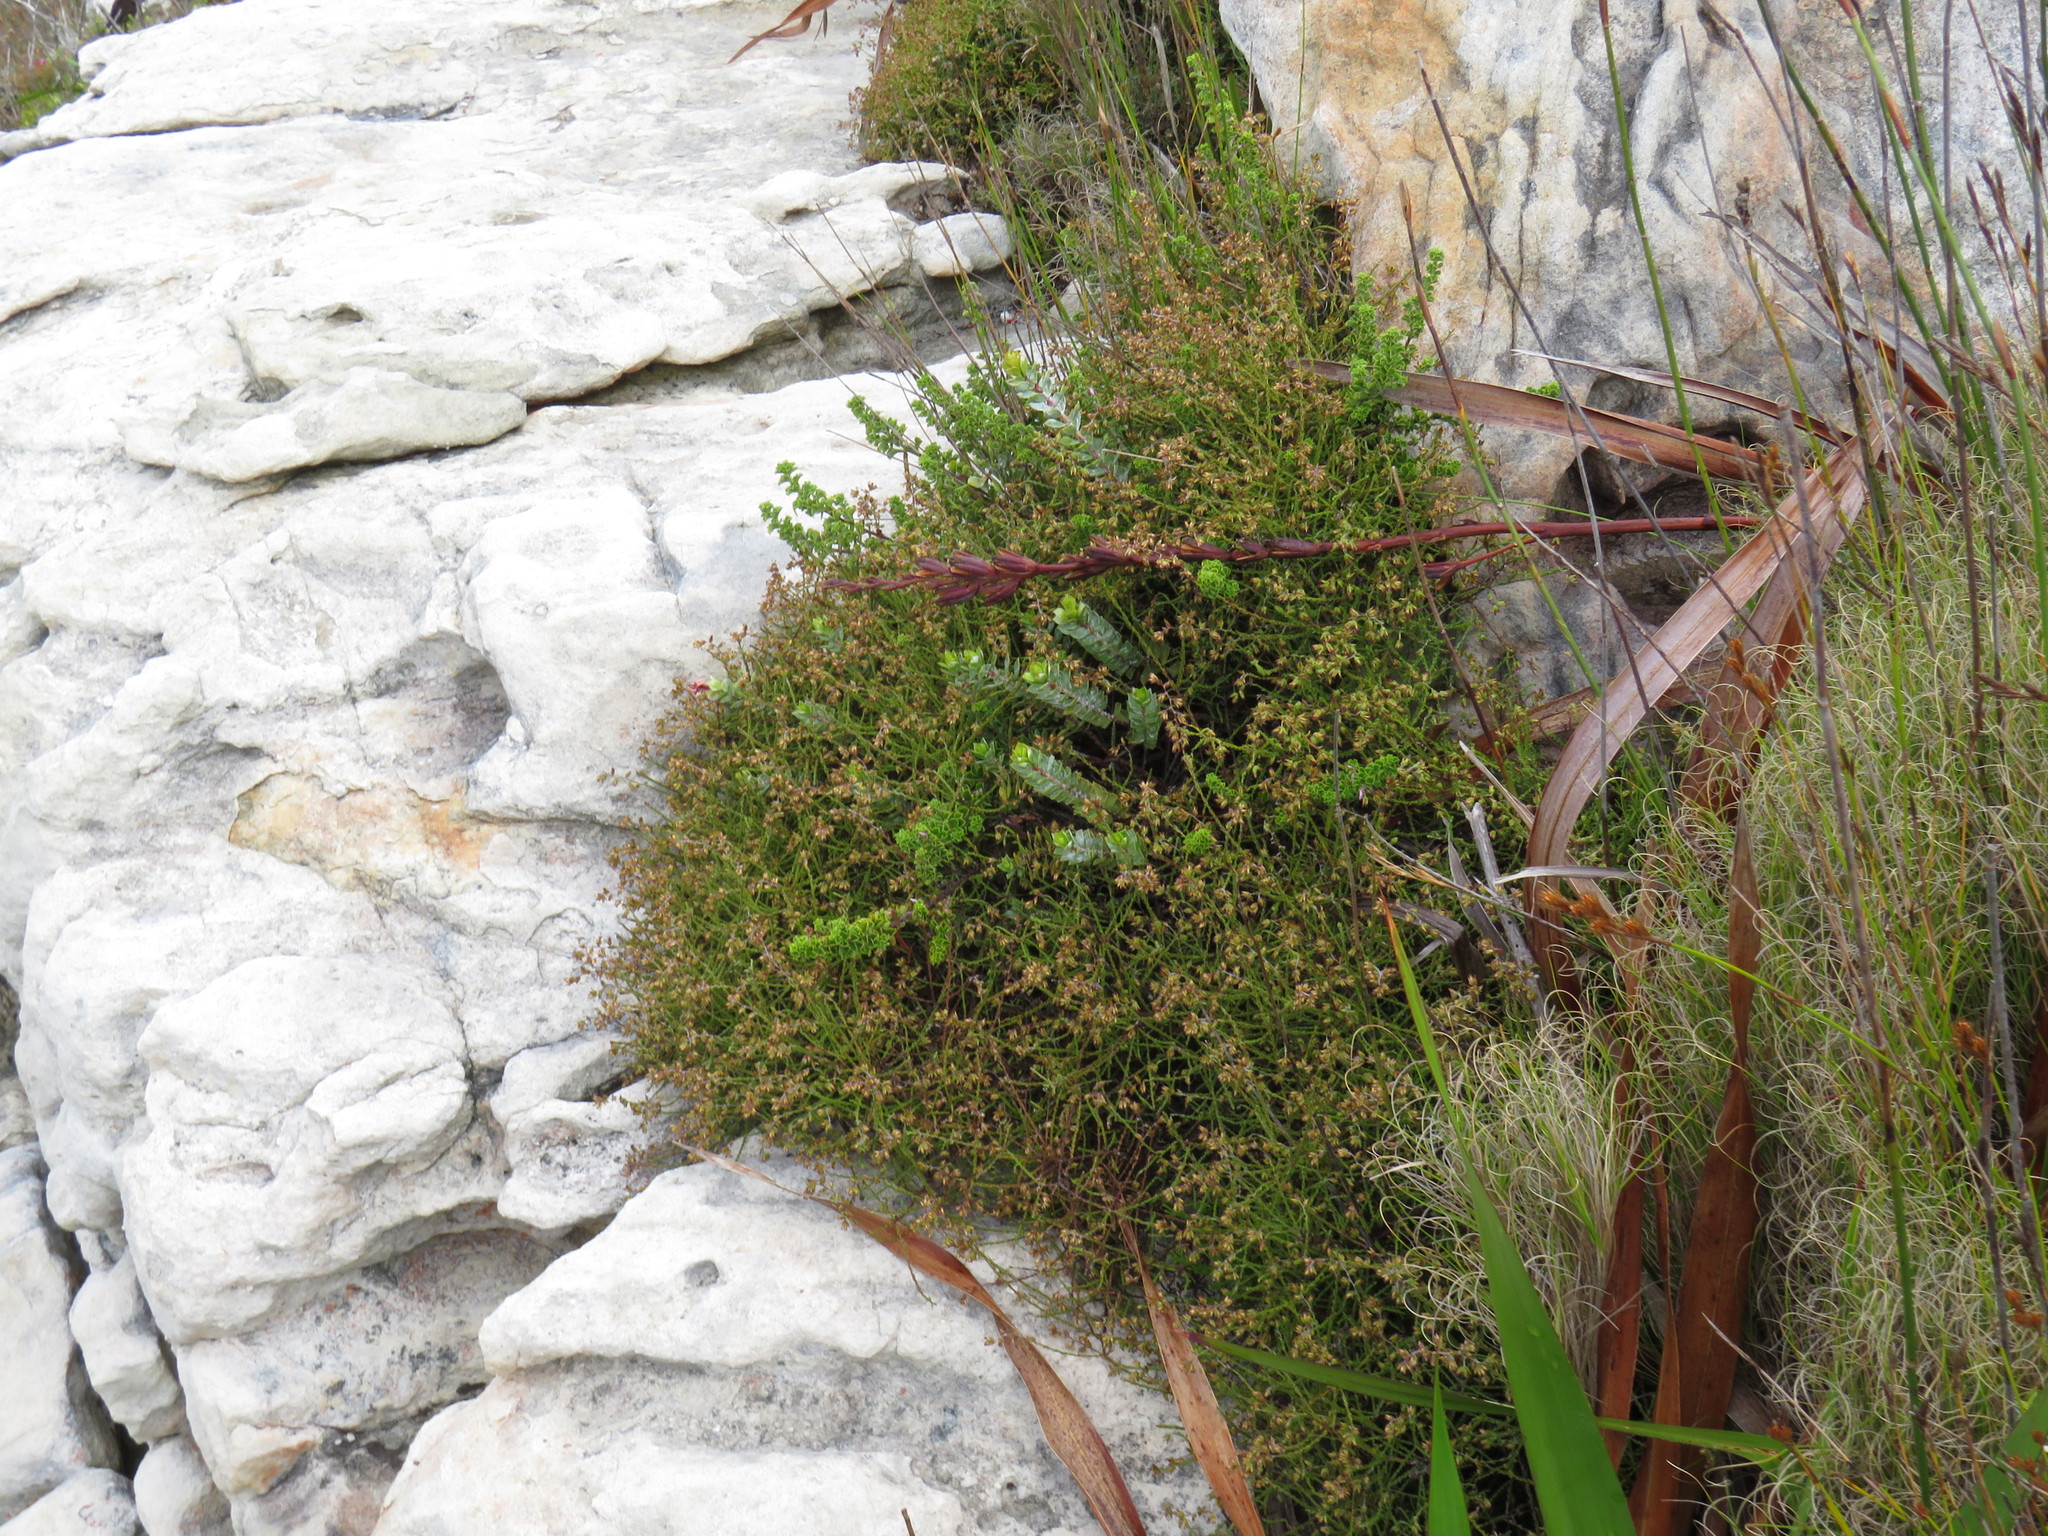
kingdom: Plantae
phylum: Tracheophyta
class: Magnoliopsida
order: Asterales
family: Asteraceae
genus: Myrovernix
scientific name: Myrovernix scaber
